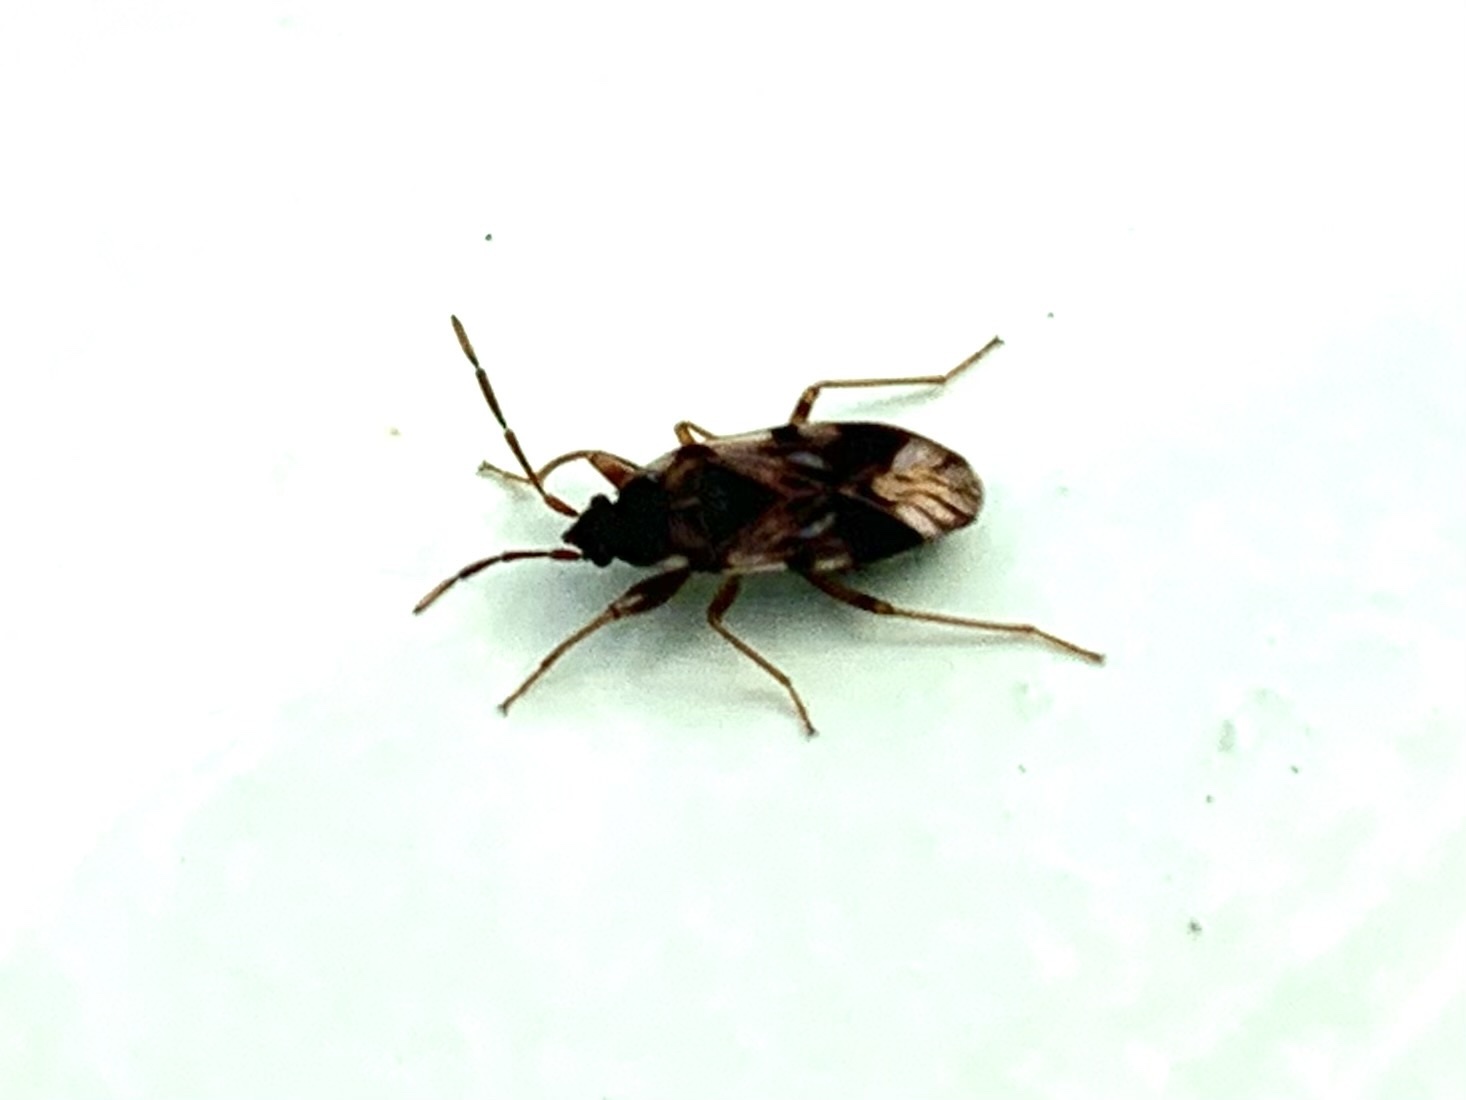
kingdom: Animalia
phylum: Arthropoda
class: Insecta
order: Hemiptera
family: Rhyparochromidae
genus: Scolopostethus
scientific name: Scolopostethus pictus
